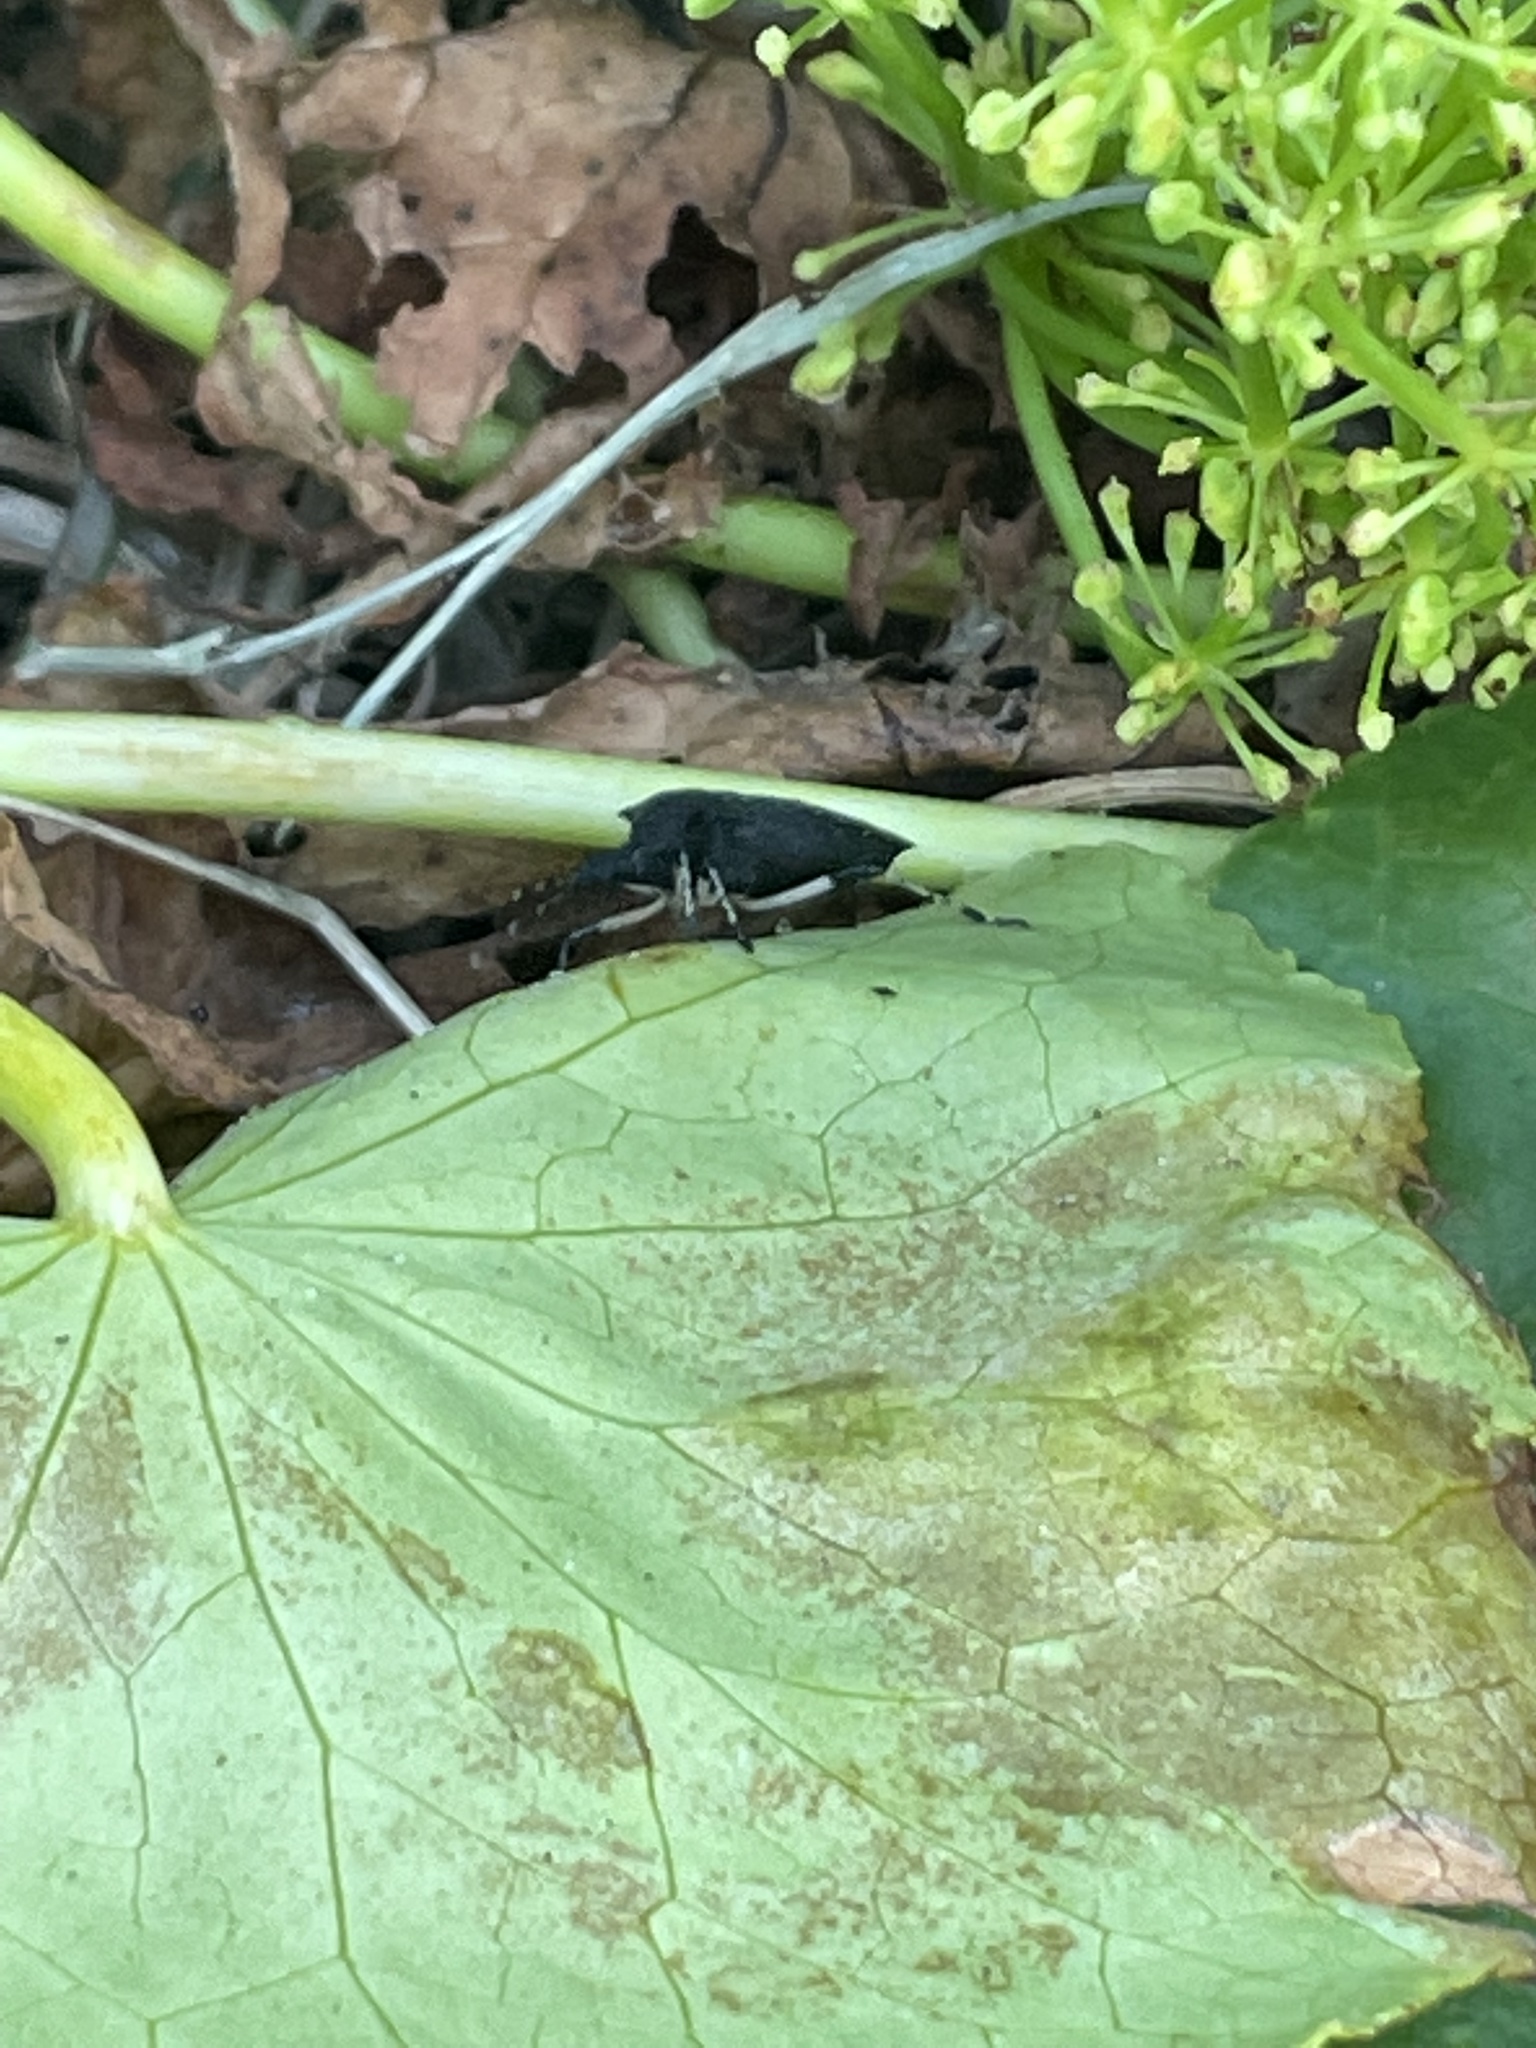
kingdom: Animalia
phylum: Arthropoda
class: Insecta
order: Hemiptera
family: Pentatomidae
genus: Proxys
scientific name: Proxys punctulatus
